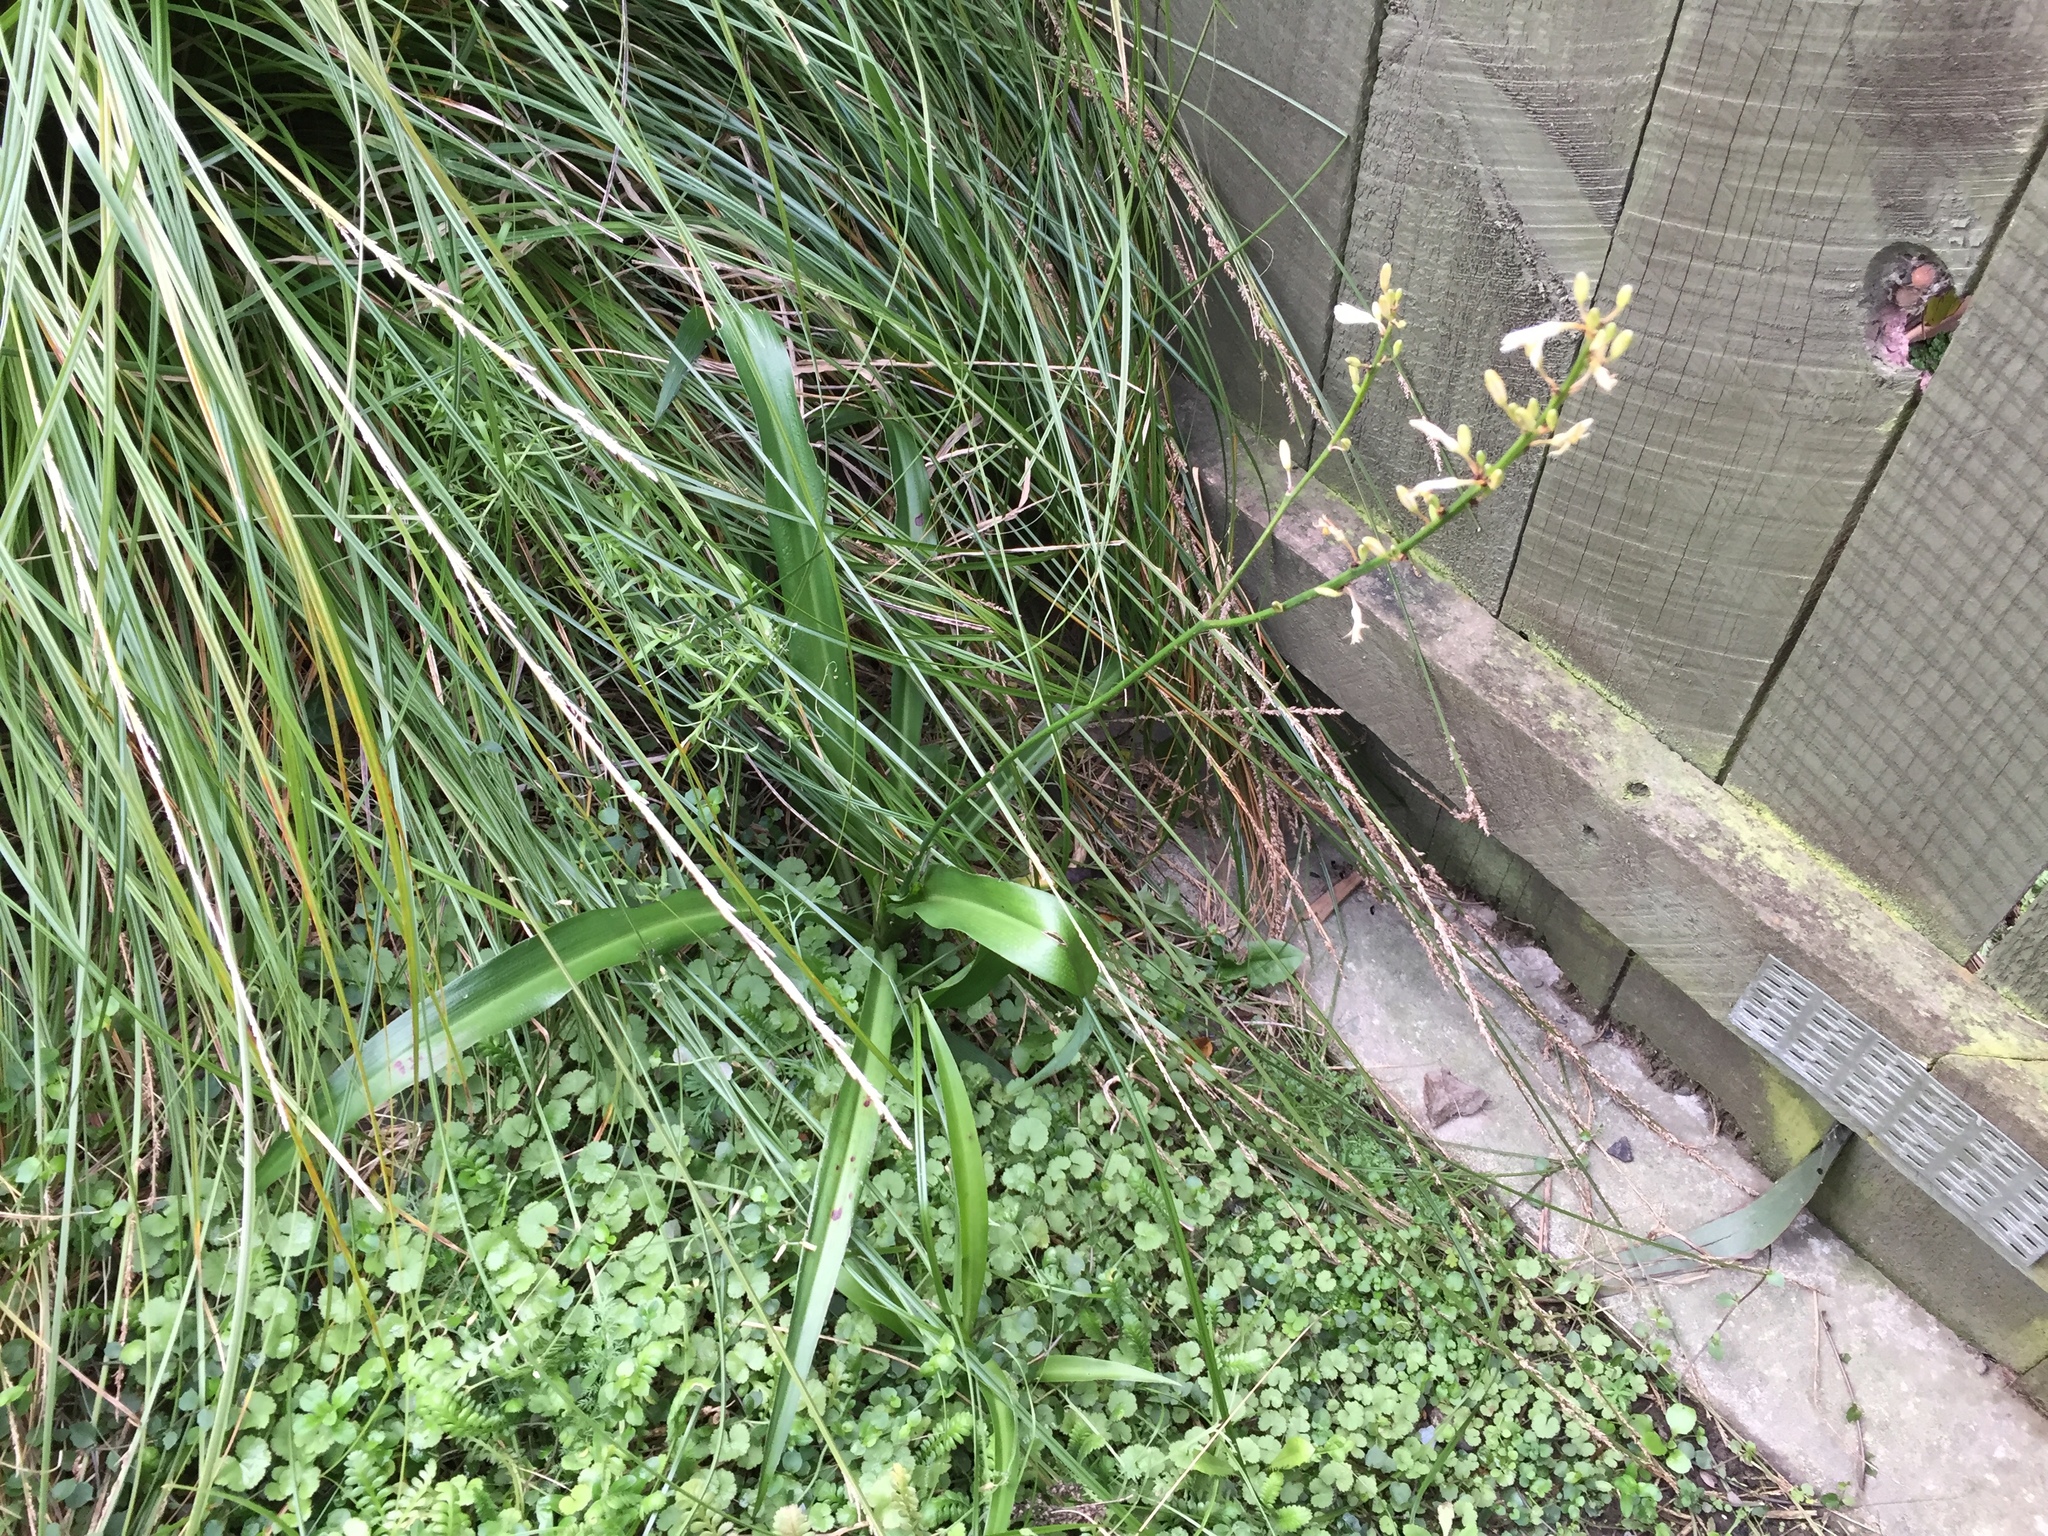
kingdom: Plantae
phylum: Tracheophyta
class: Liliopsida
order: Asparagales
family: Asparagaceae
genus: Chlorophytum
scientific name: Chlorophytum comosum
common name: Spider plant
